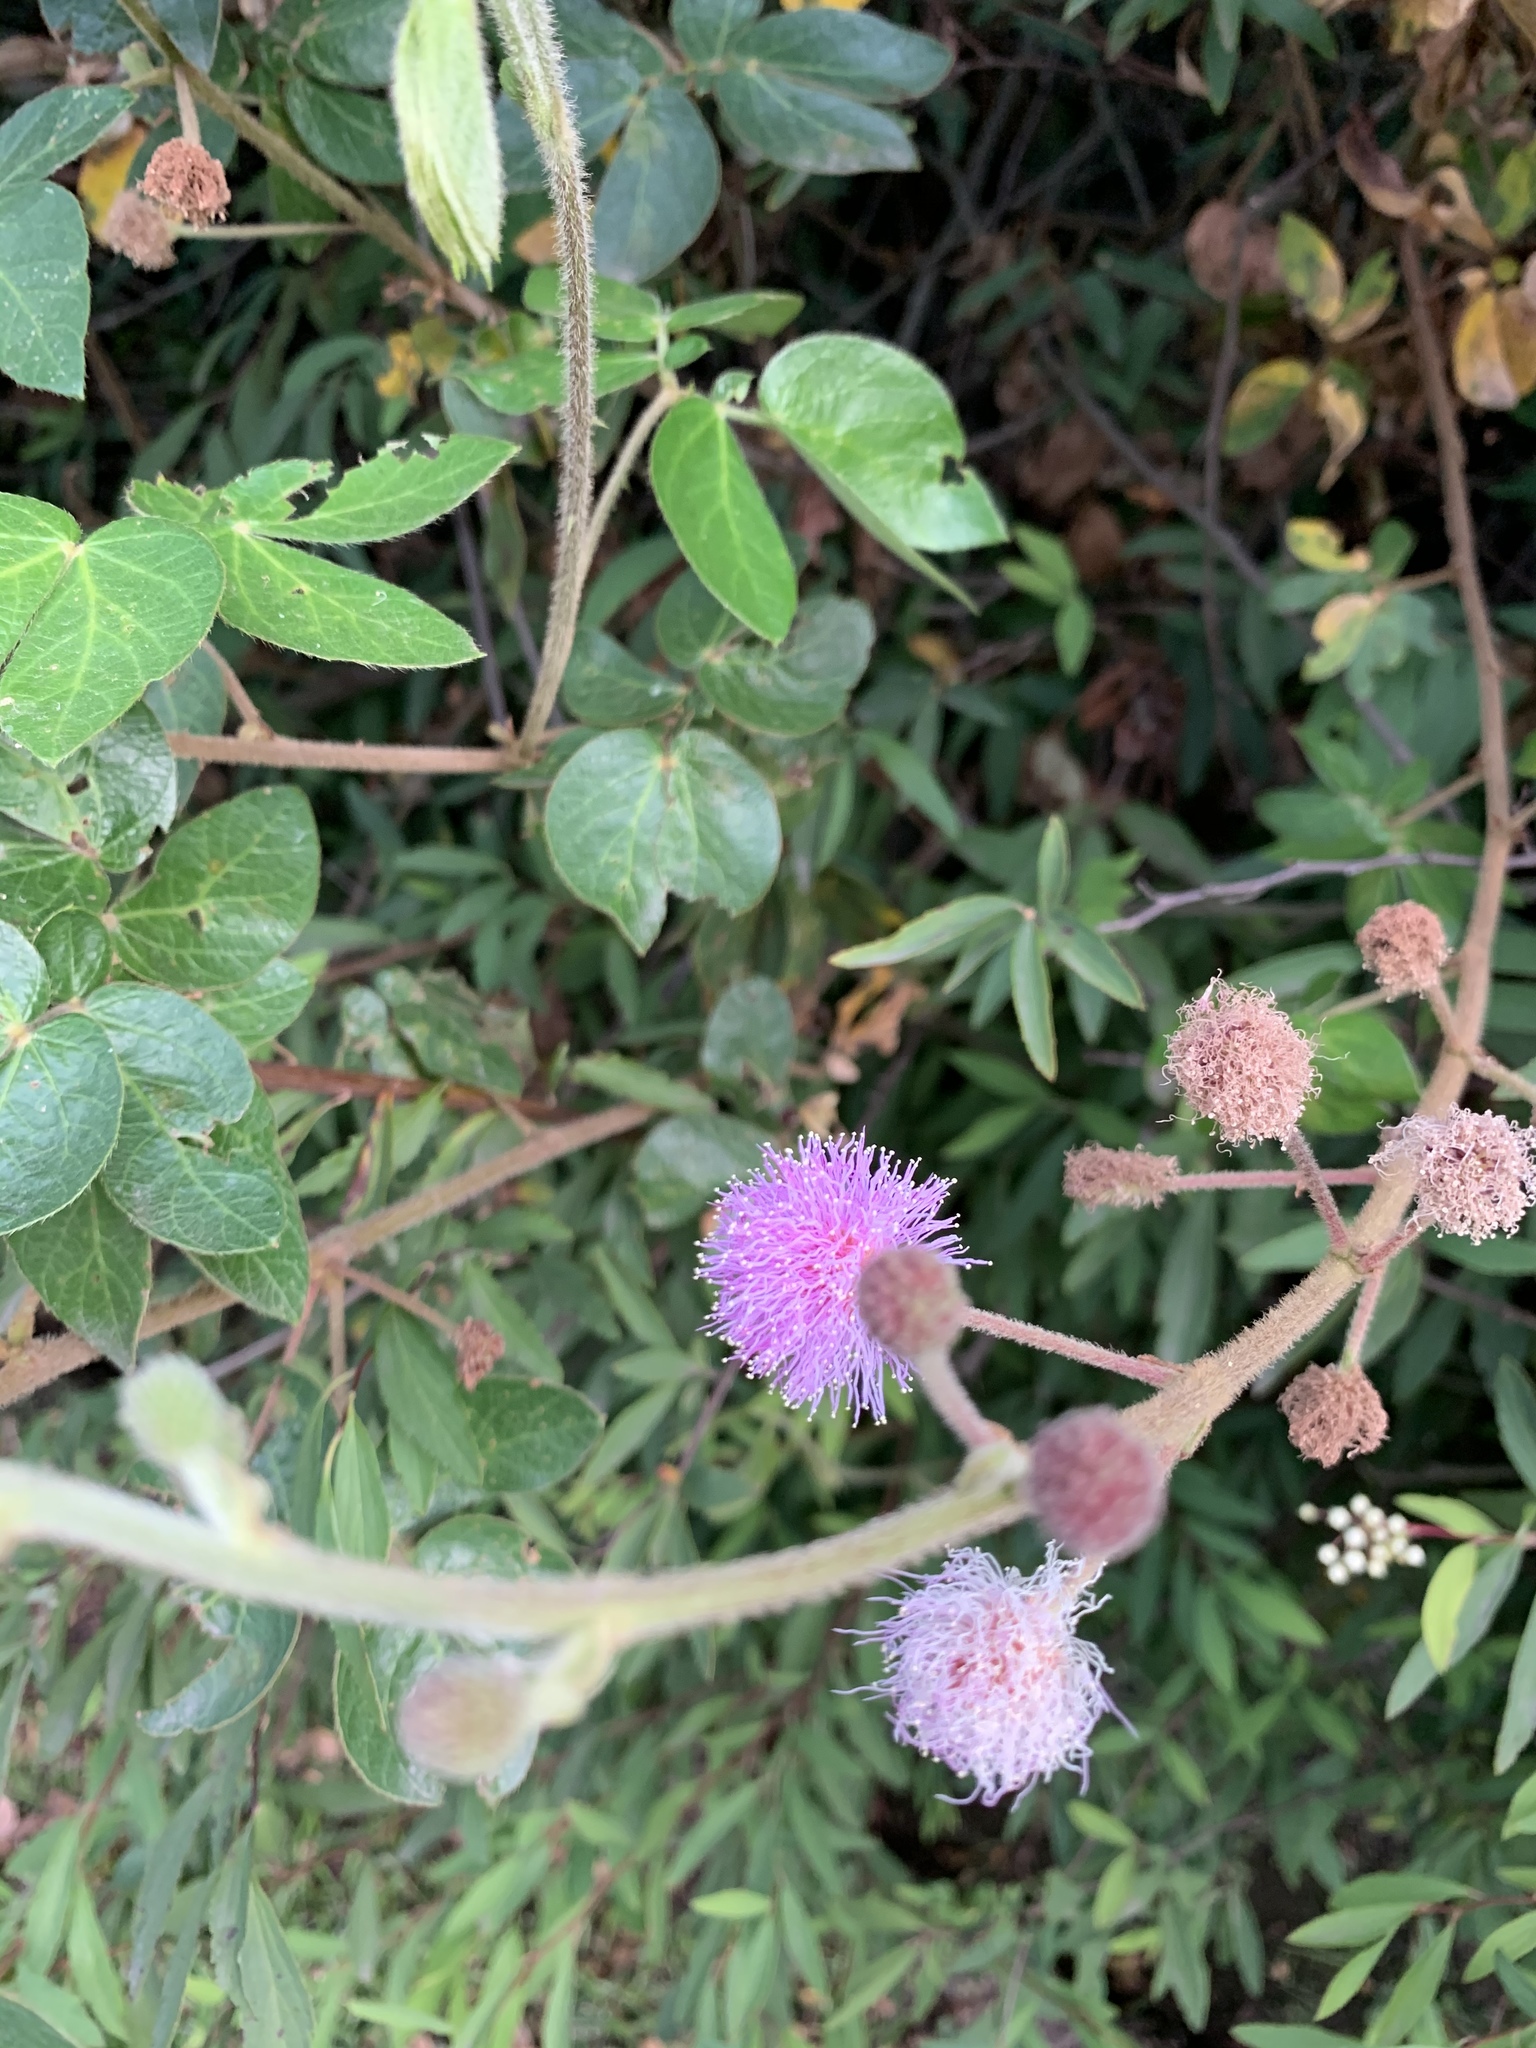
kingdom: Plantae
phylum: Tracheophyta
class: Magnoliopsida
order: Fabales
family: Fabaceae
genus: Mimosa
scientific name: Mimosa albida
